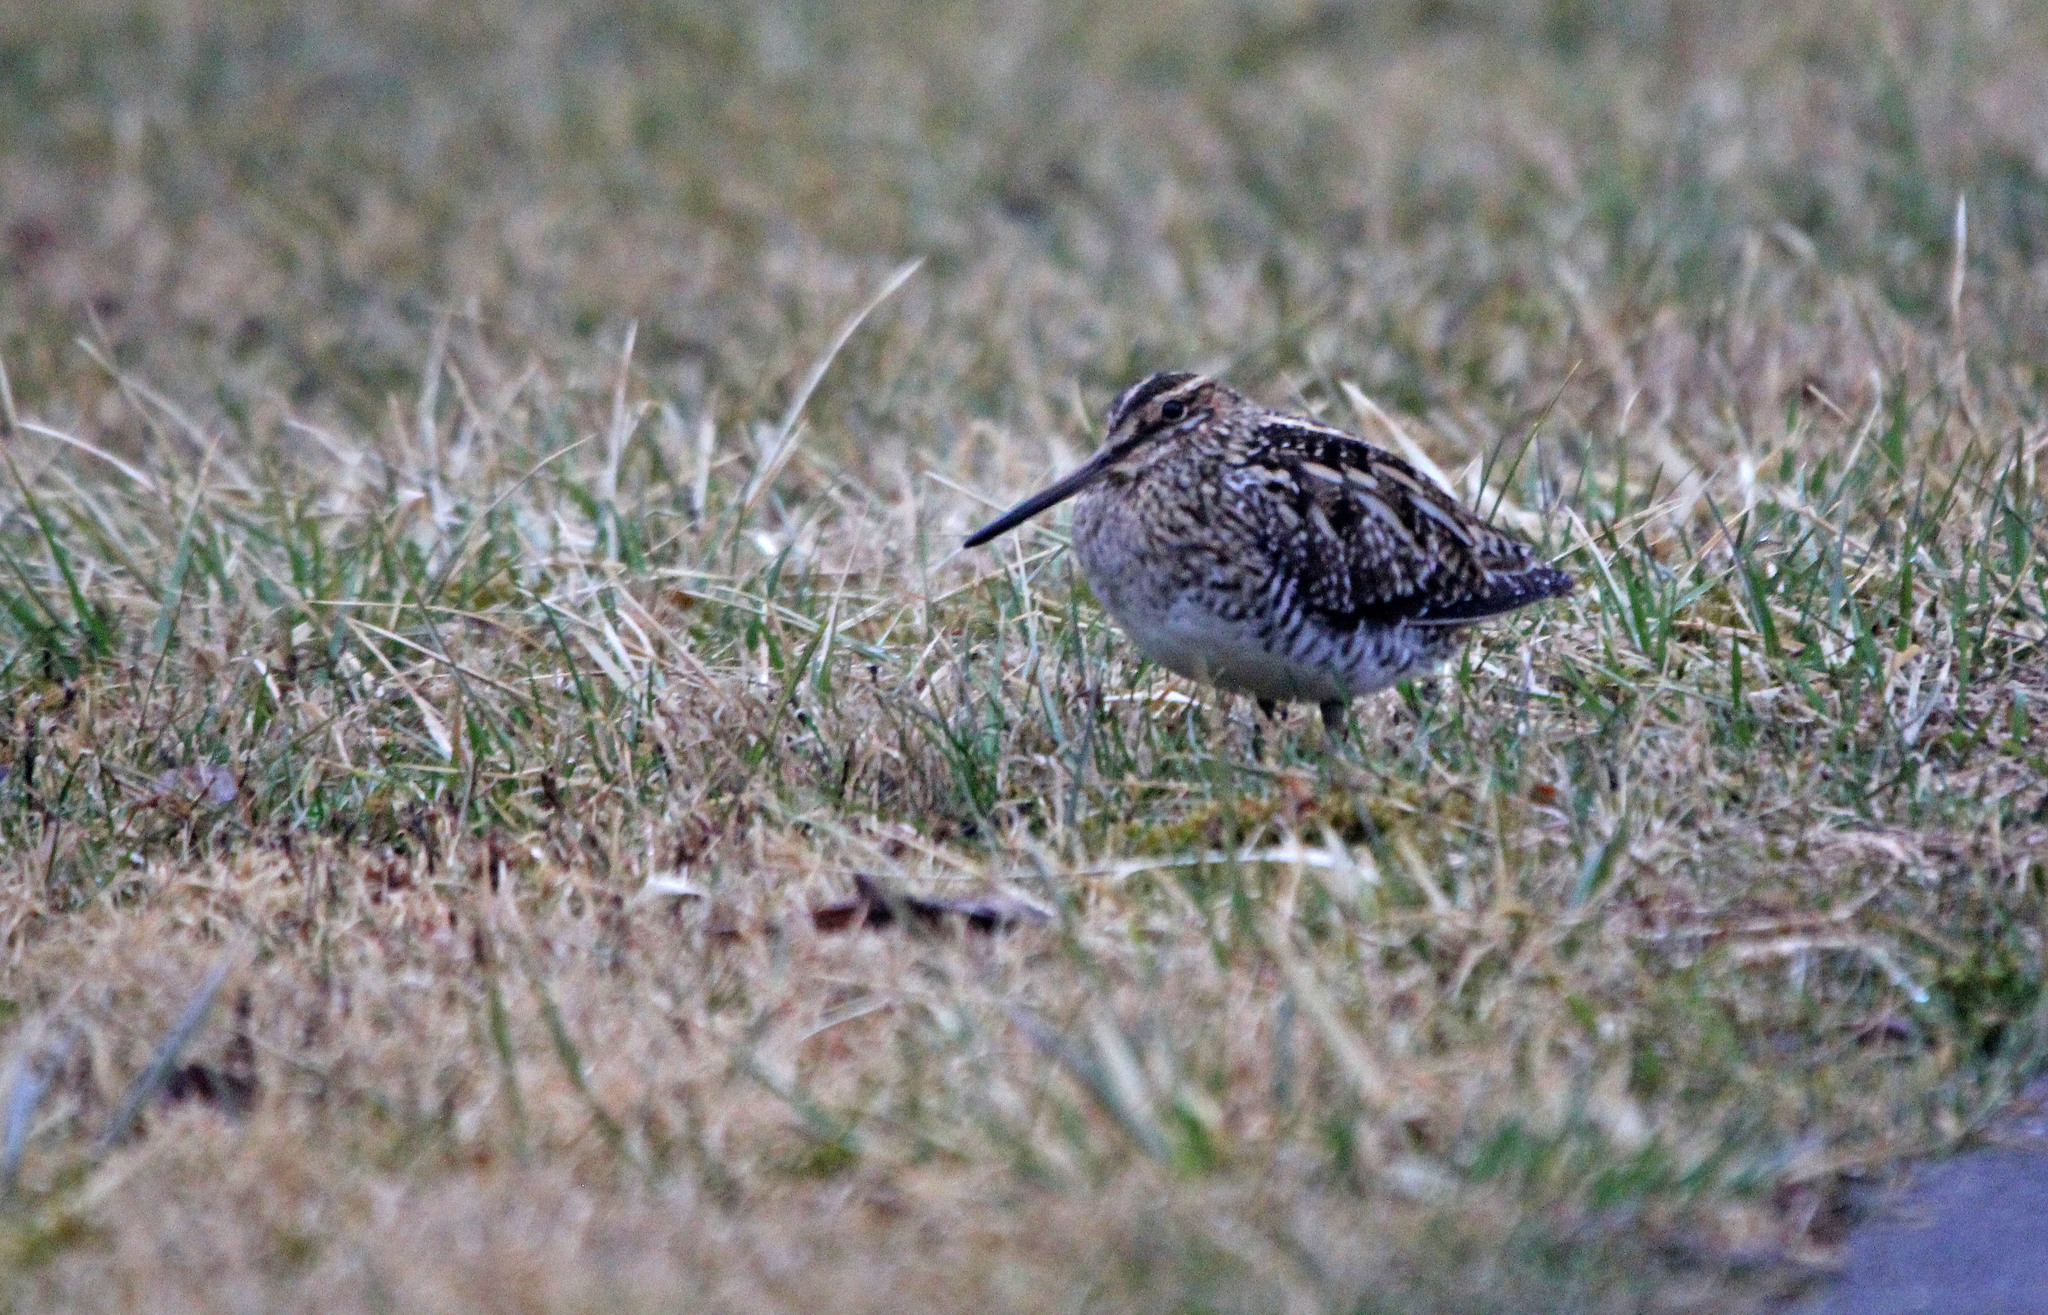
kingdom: Animalia
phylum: Chordata
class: Aves
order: Charadriiformes
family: Scolopacidae
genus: Gallinago
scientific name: Gallinago delicata
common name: Wilson's snipe
